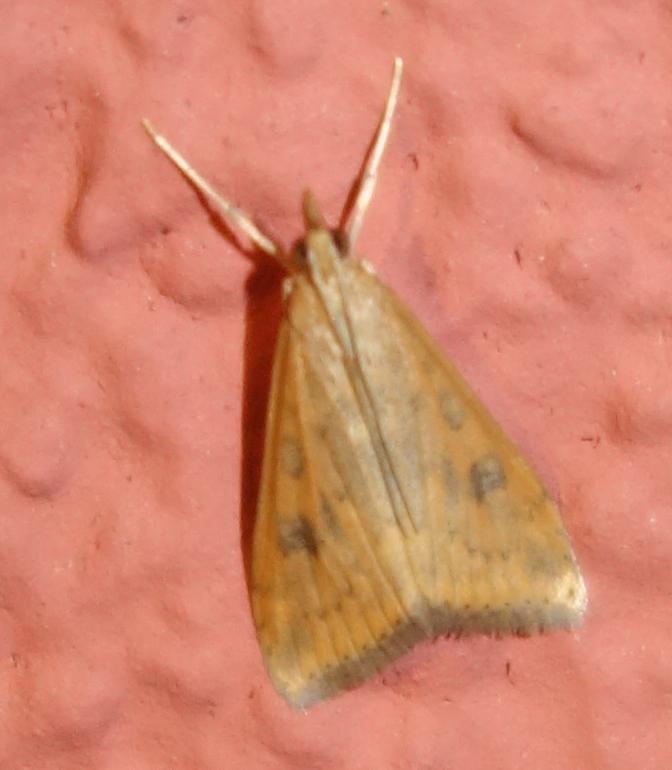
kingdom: Animalia
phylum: Arthropoda
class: Insecta
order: Lepidoptera
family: Crambidae
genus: Udea
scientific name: Udea ferrugalis
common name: Rusty dot
